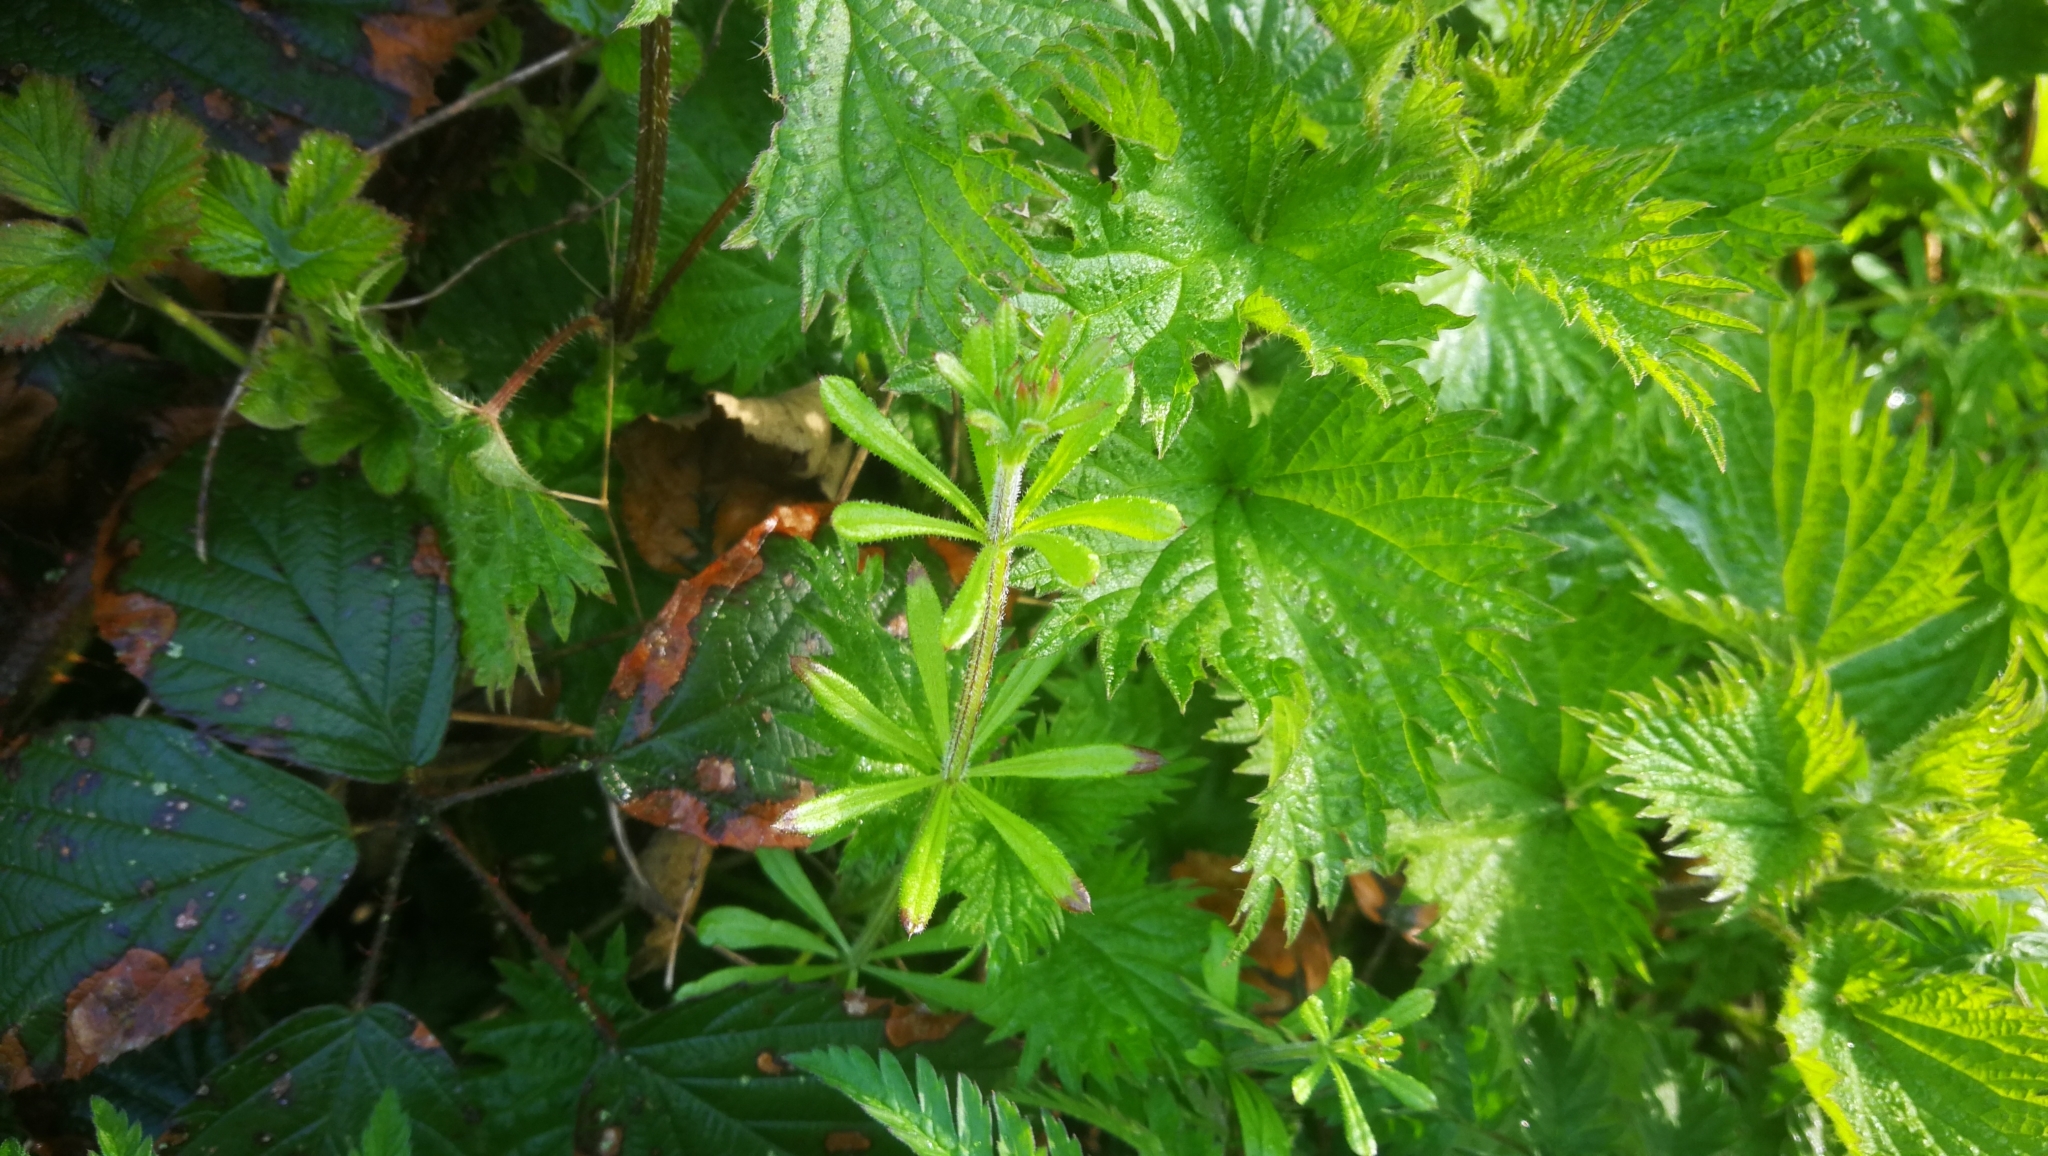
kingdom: Plantae
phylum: Tracheophyta
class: Magnoliopsida
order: Gentianales
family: Rubiaceae
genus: Galium
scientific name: Galium aparine
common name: Cleavers
